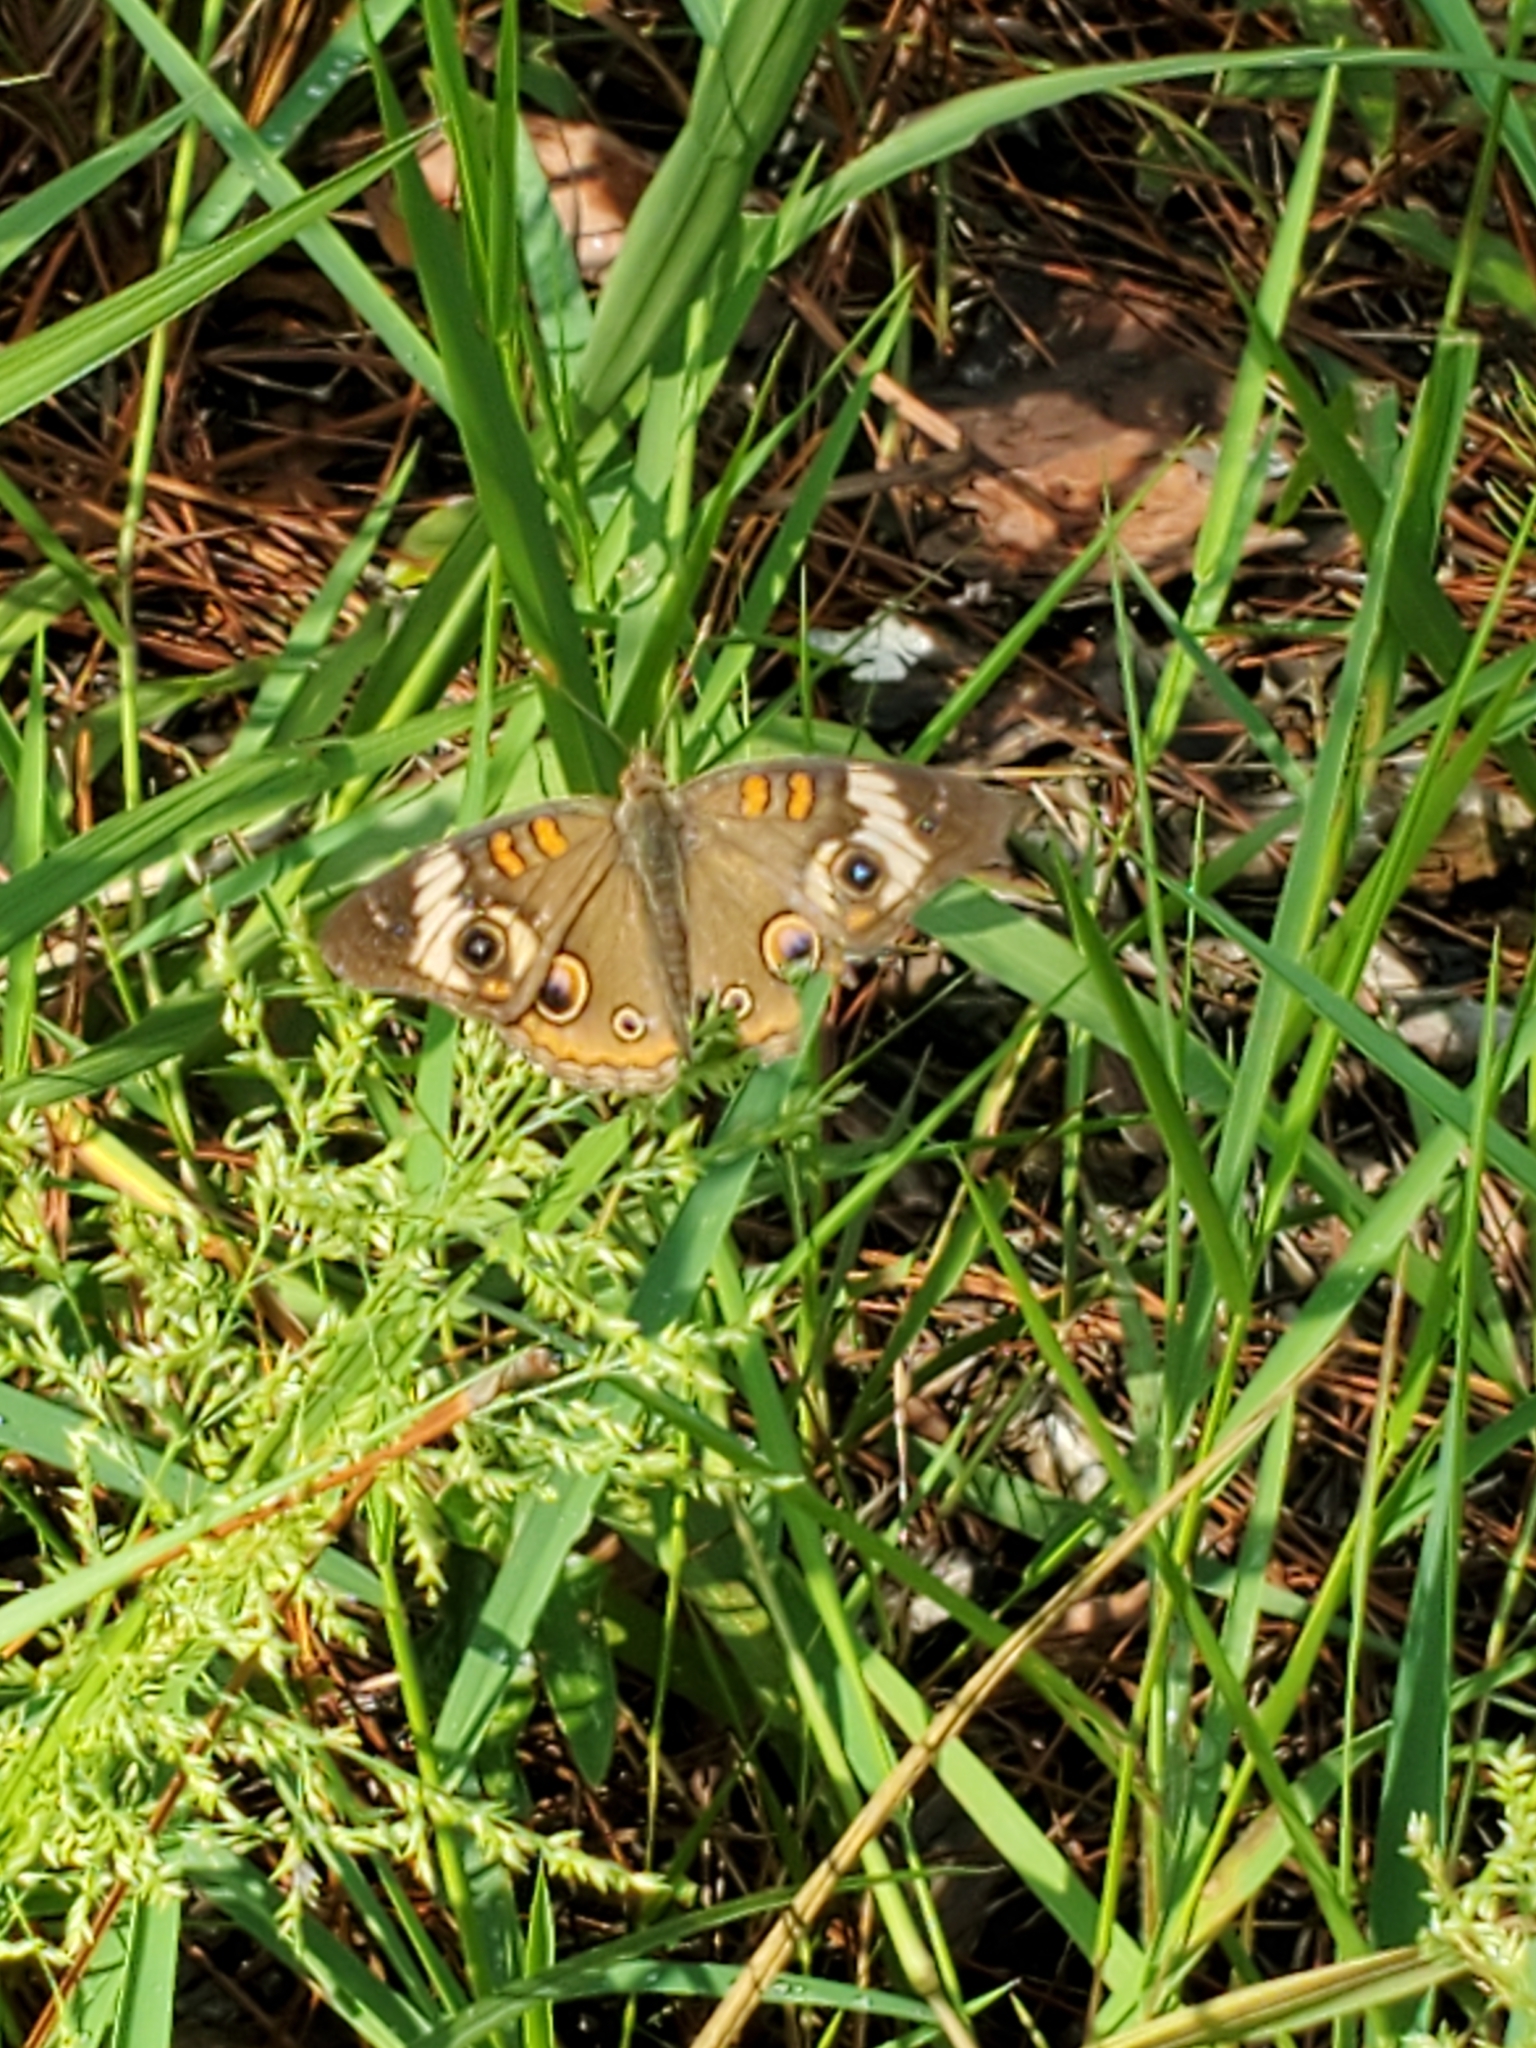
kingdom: Animalia
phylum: Arthropoda
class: Insecta
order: Lepidoptera
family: Nymphalidae
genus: Junonia
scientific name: Junonia coenia
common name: Common buckeye
